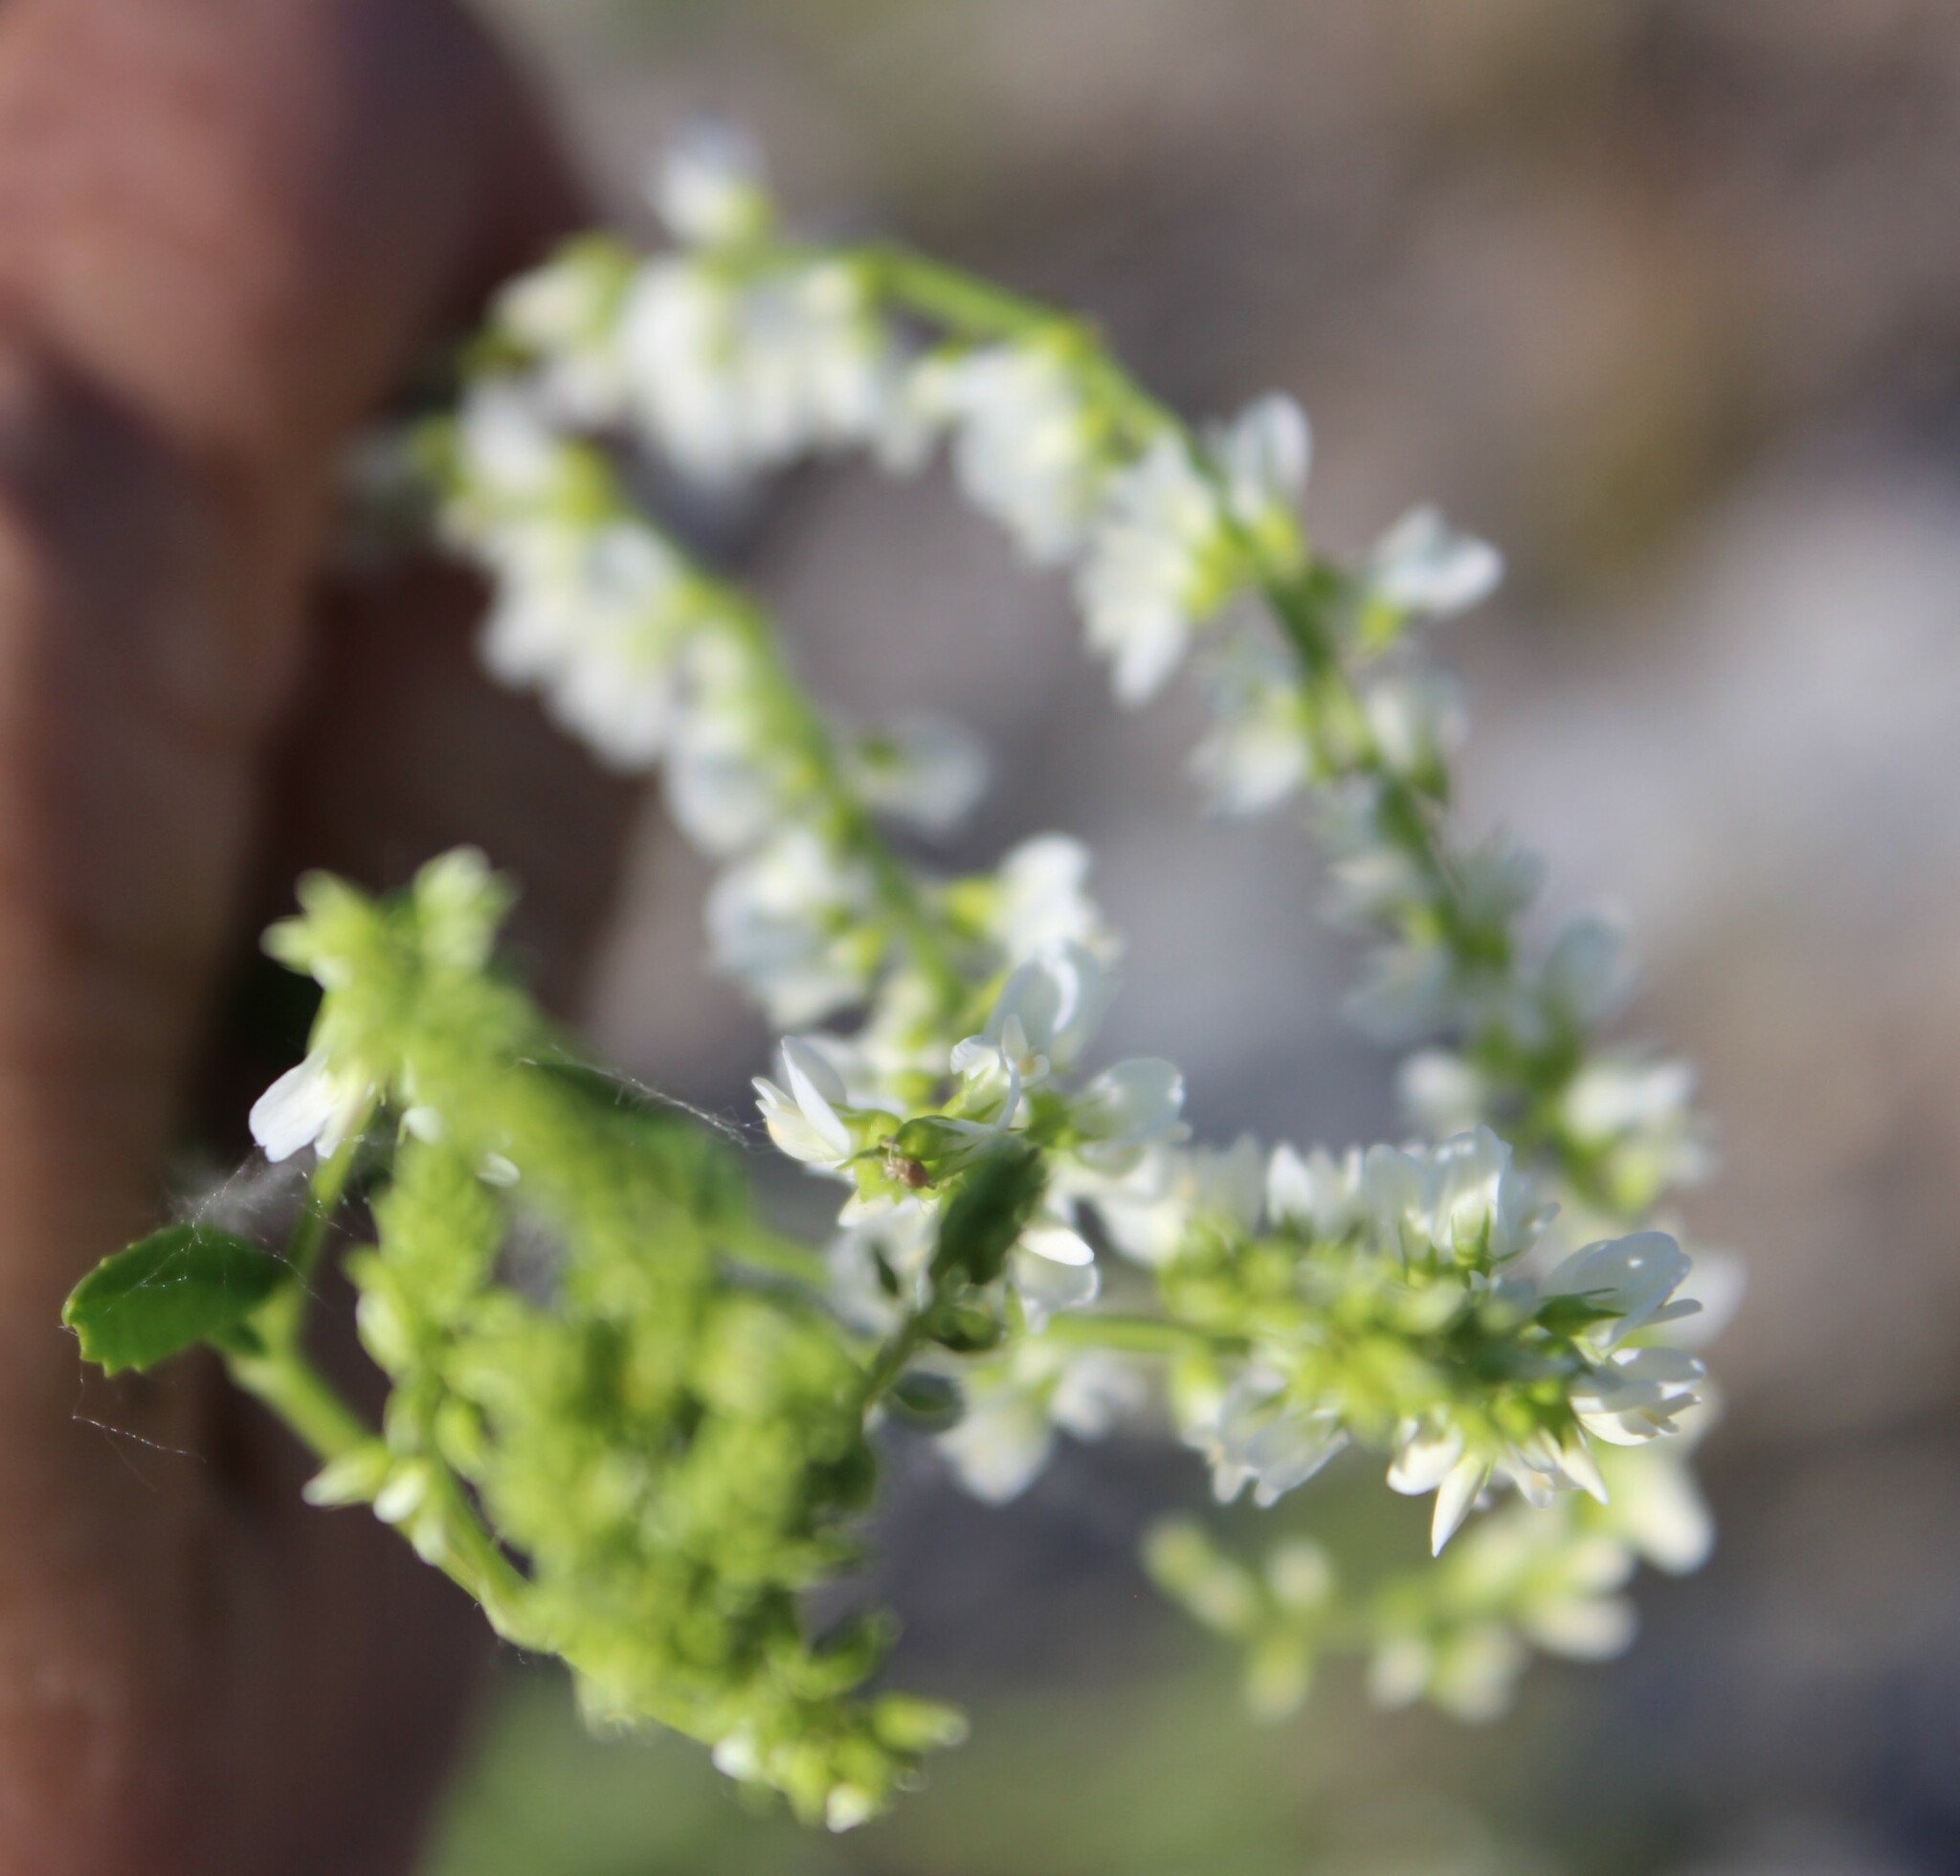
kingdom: Plantae
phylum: Tracheophyta
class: Magnoliopsida
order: Fabales
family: Fabaceae
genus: Melilotus
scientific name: Melilotus albus
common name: White melilot
